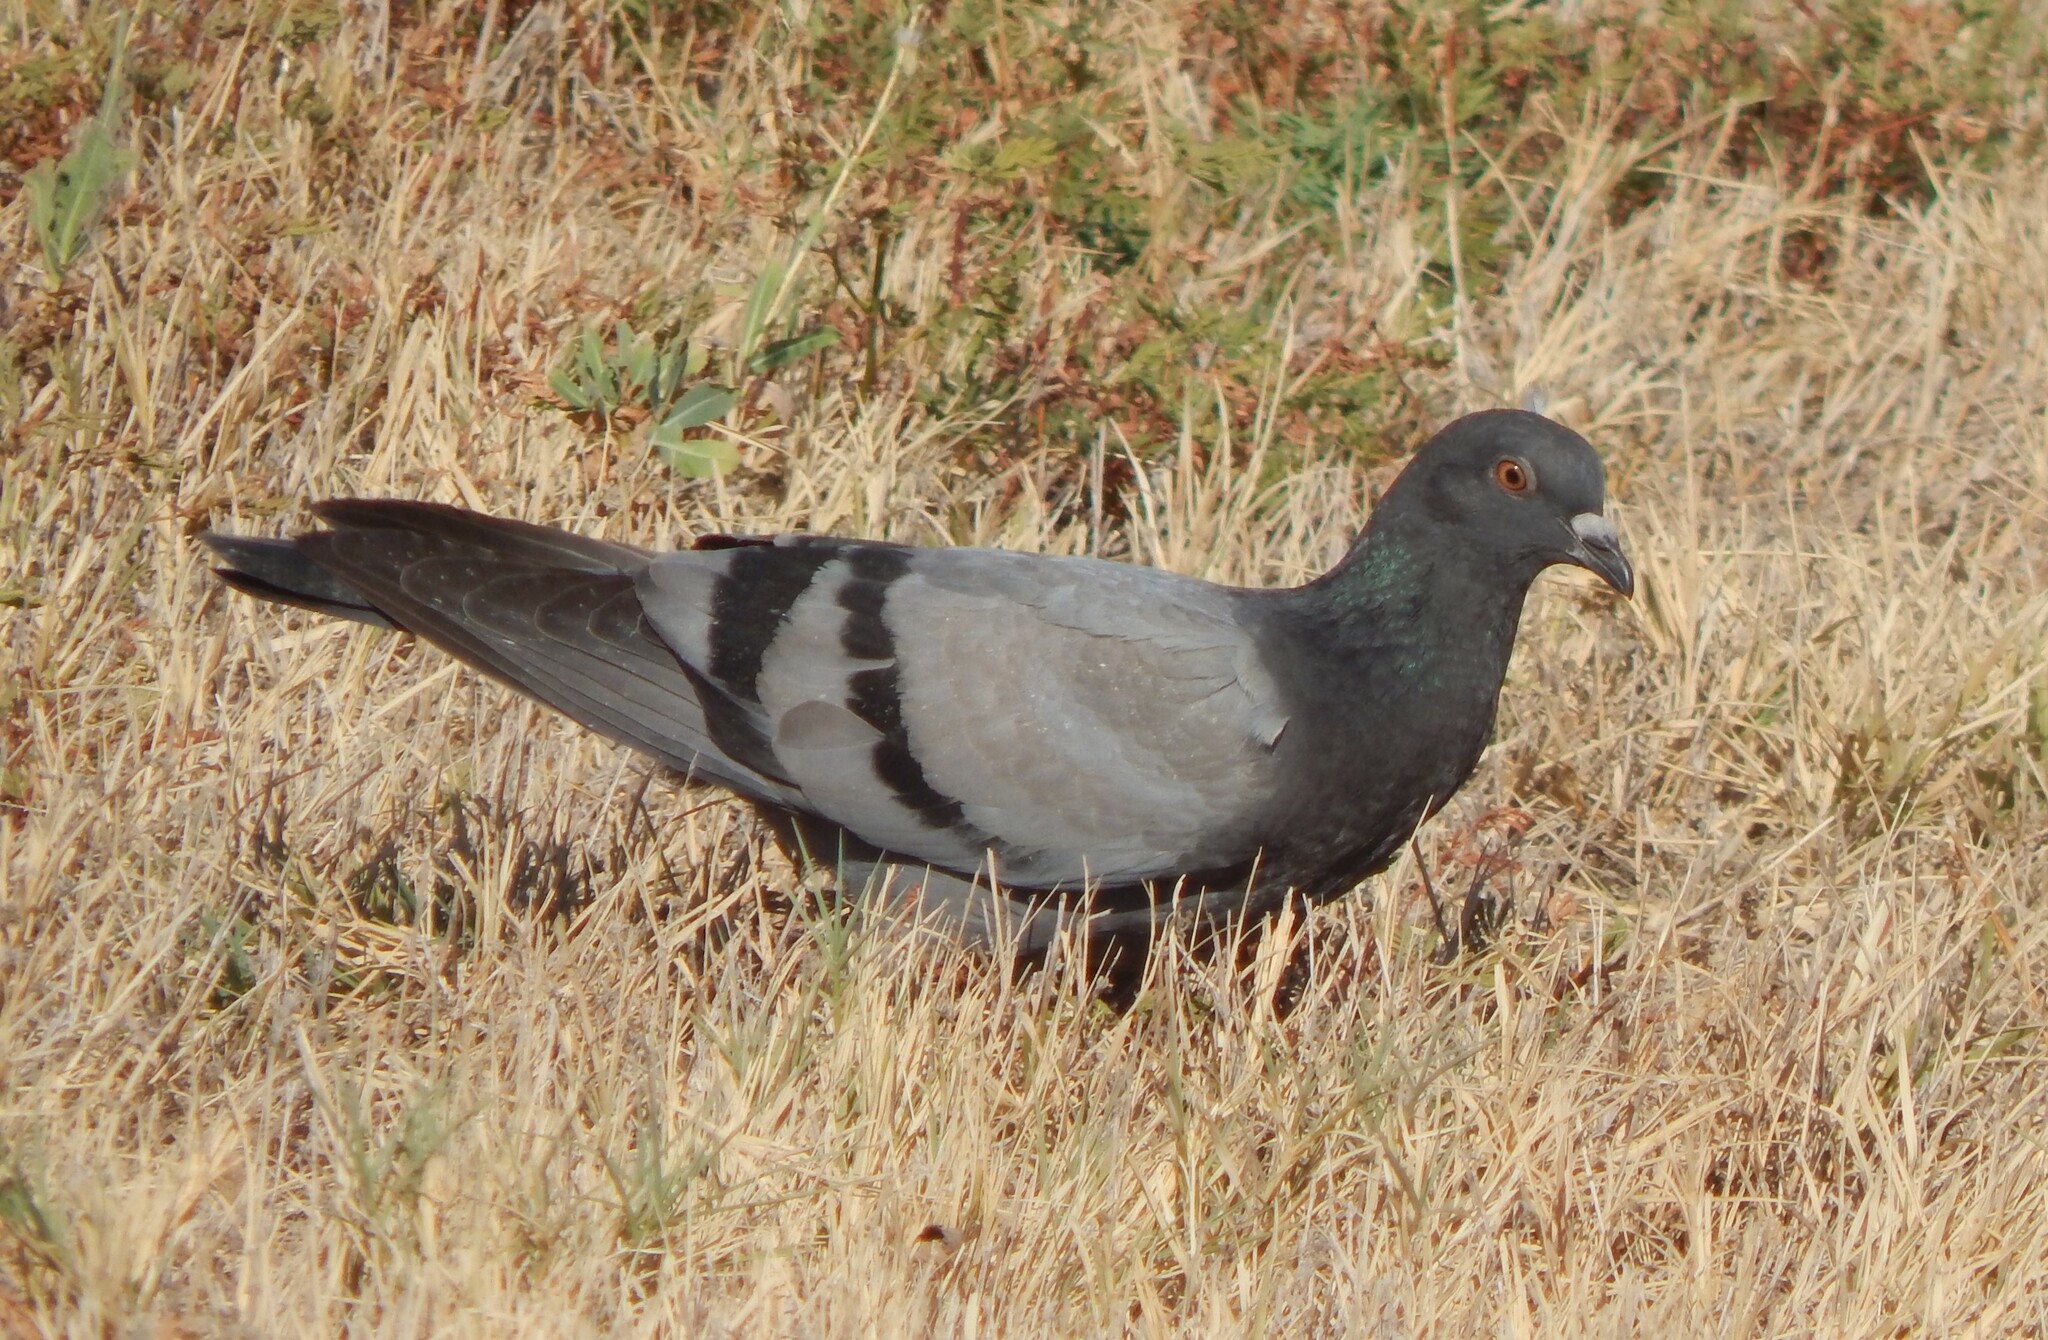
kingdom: Animalia
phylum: Chordata
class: Aves
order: Columbiformes
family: Columbidae
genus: Columba
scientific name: Columba livia
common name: Rock pigeon
